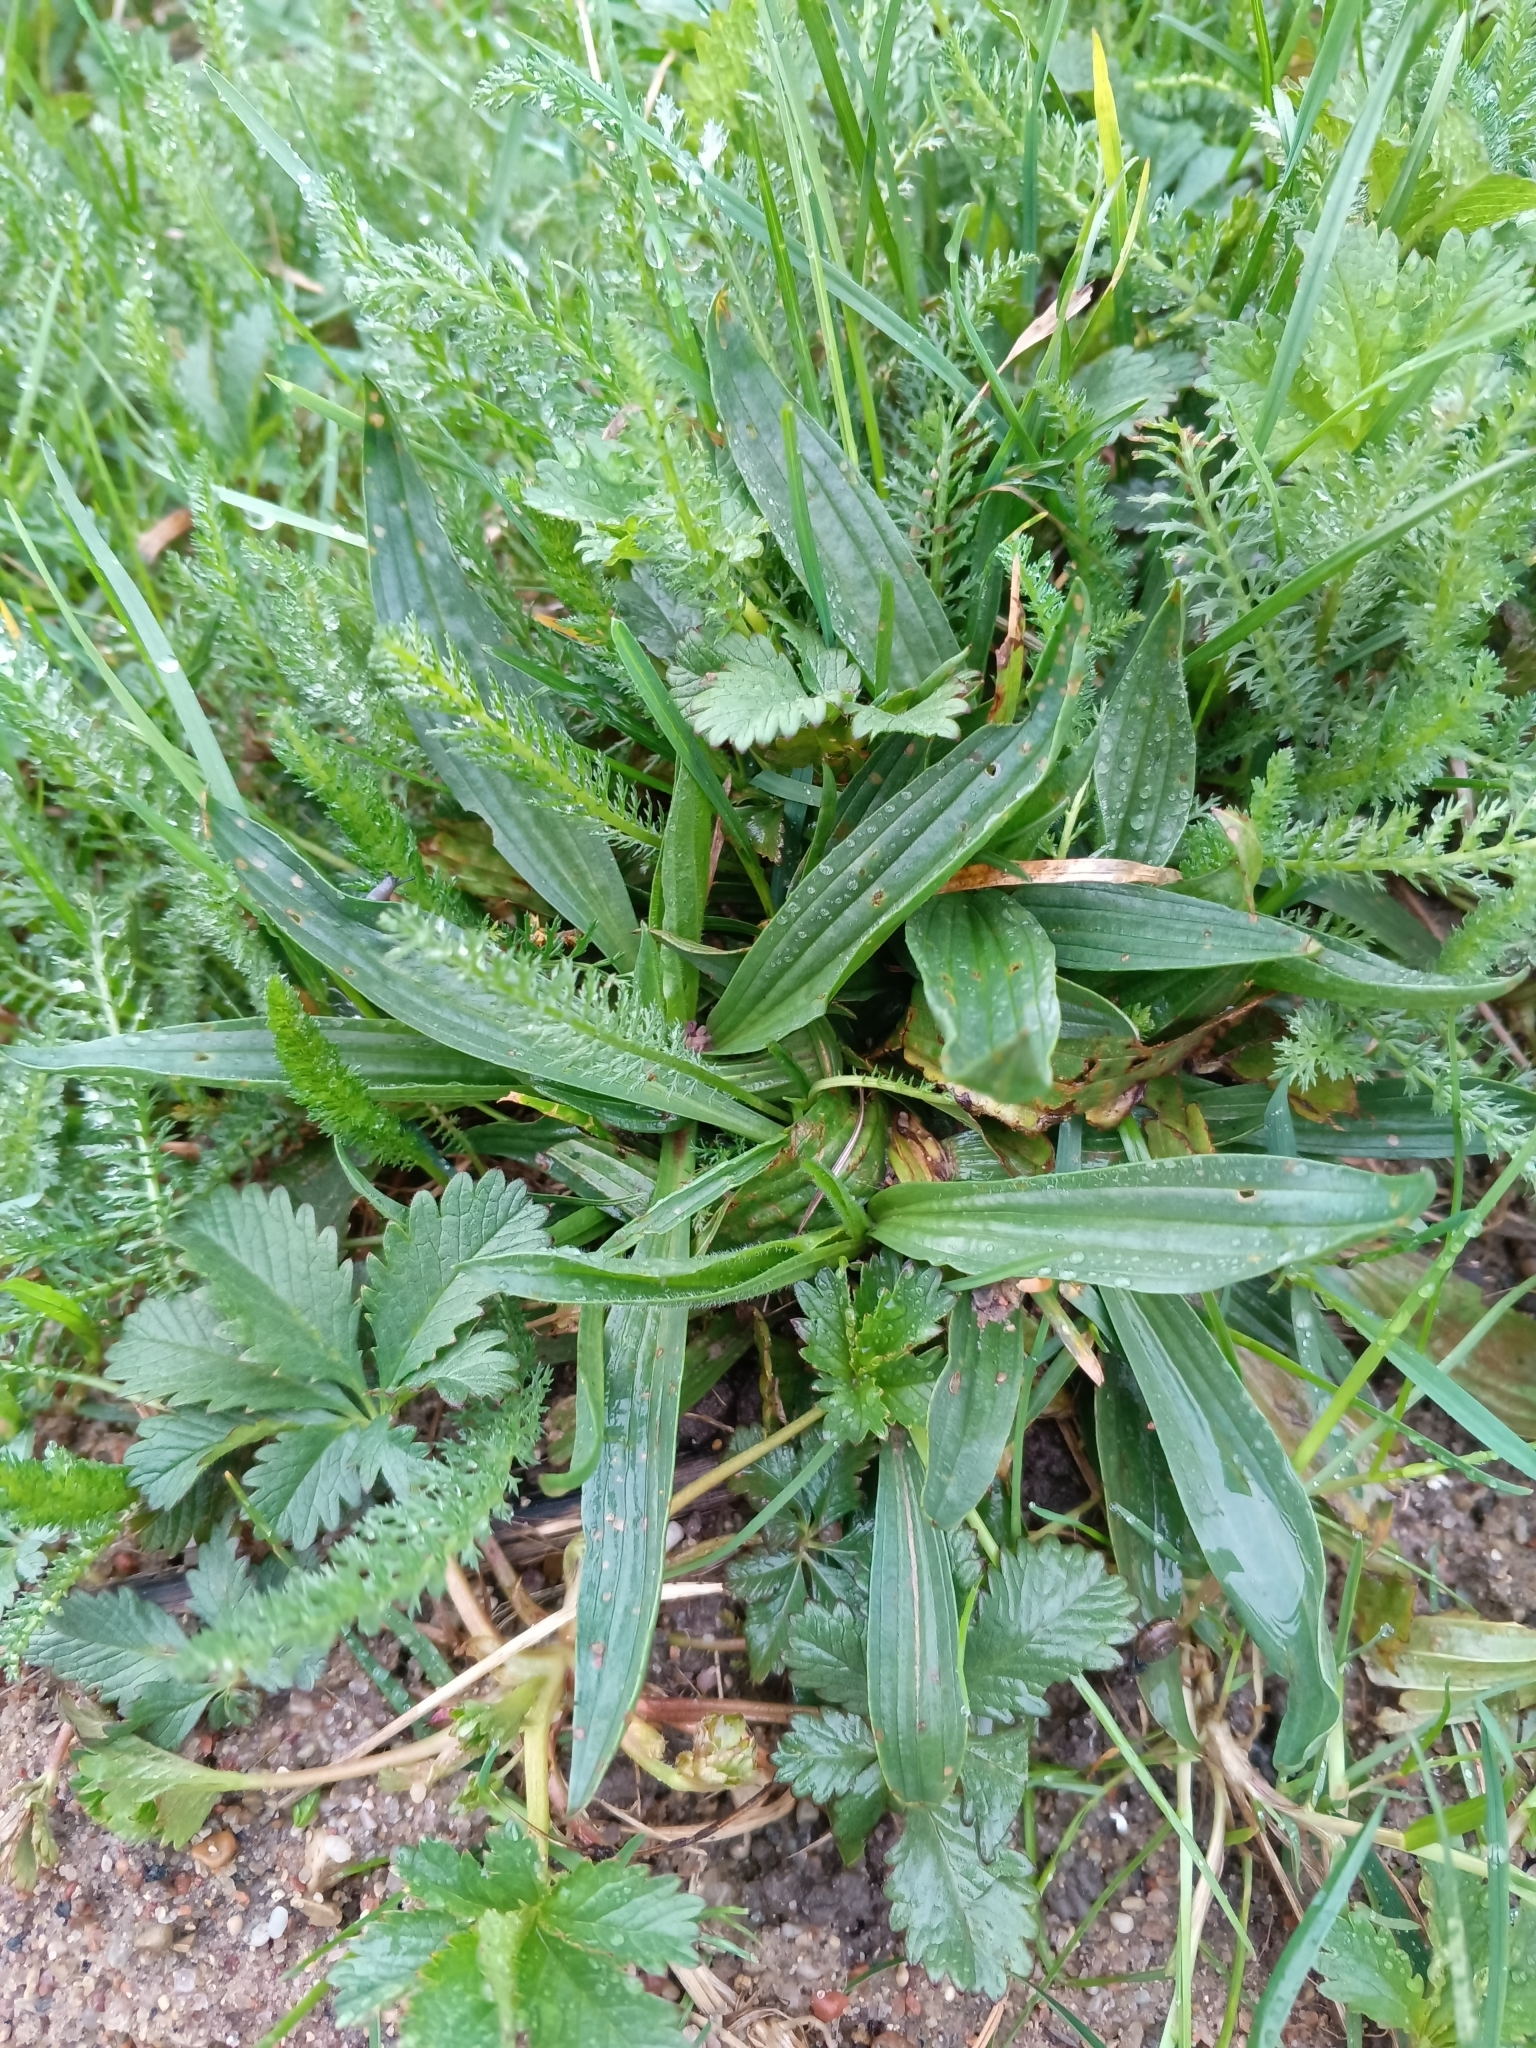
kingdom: Plantae
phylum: Tracheophyta
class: Magnoliopsida
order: Lamiales
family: Plantaginaceae
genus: Plantago
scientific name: Plantago lanceolata
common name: Ribwort plantain
